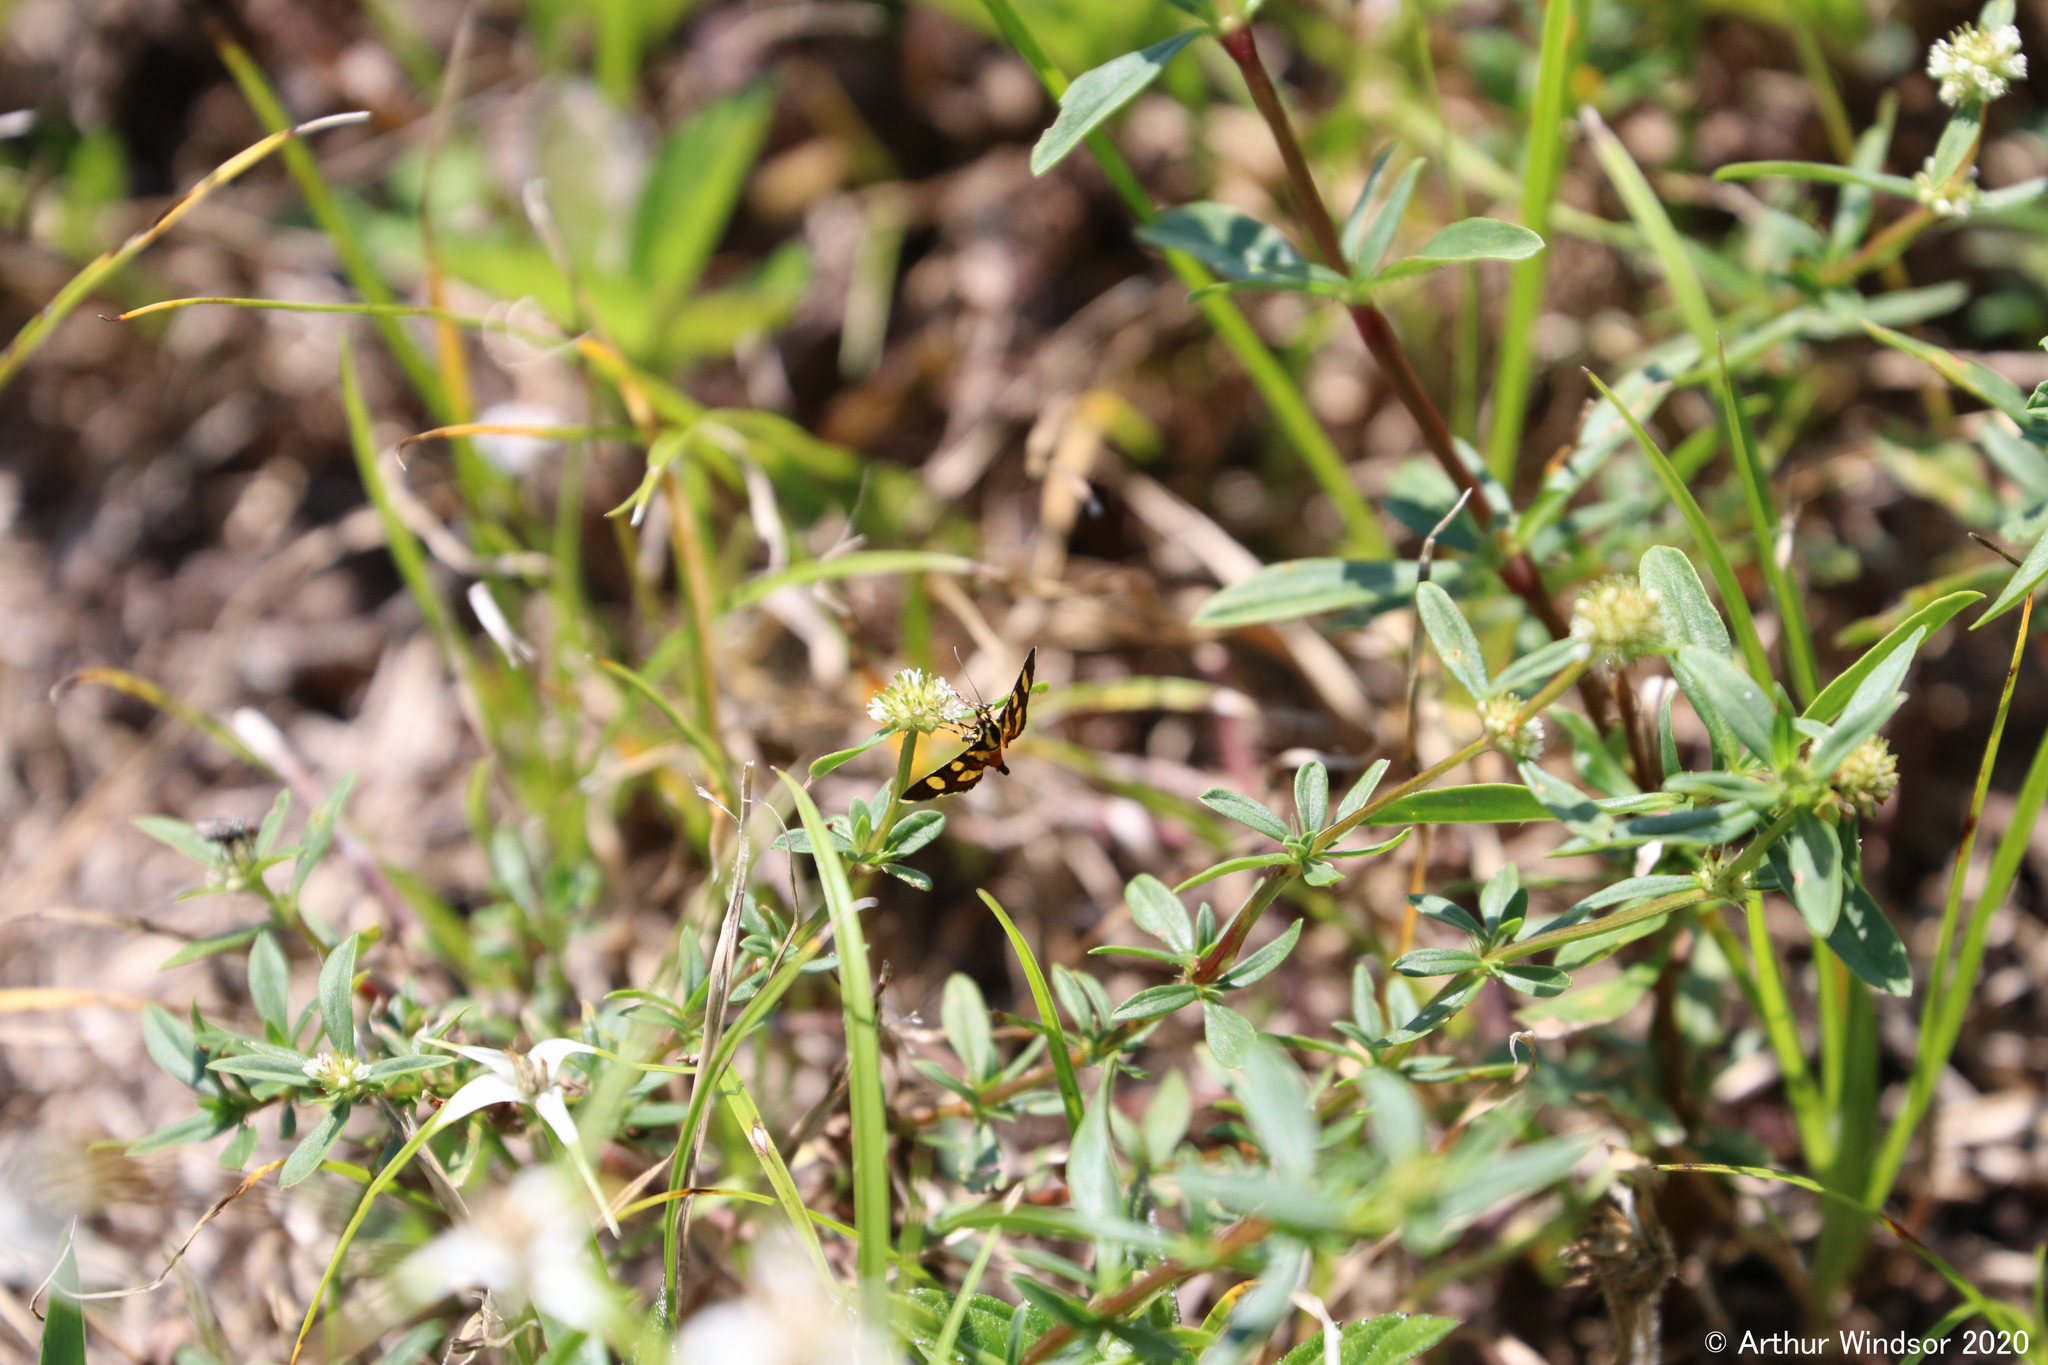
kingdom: Animalia
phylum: Arthropoda
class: Insecta
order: Lepidoptera
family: Crambidae
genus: Syngamia
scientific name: Syngamia florella
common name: Orange-spotted flower moth
